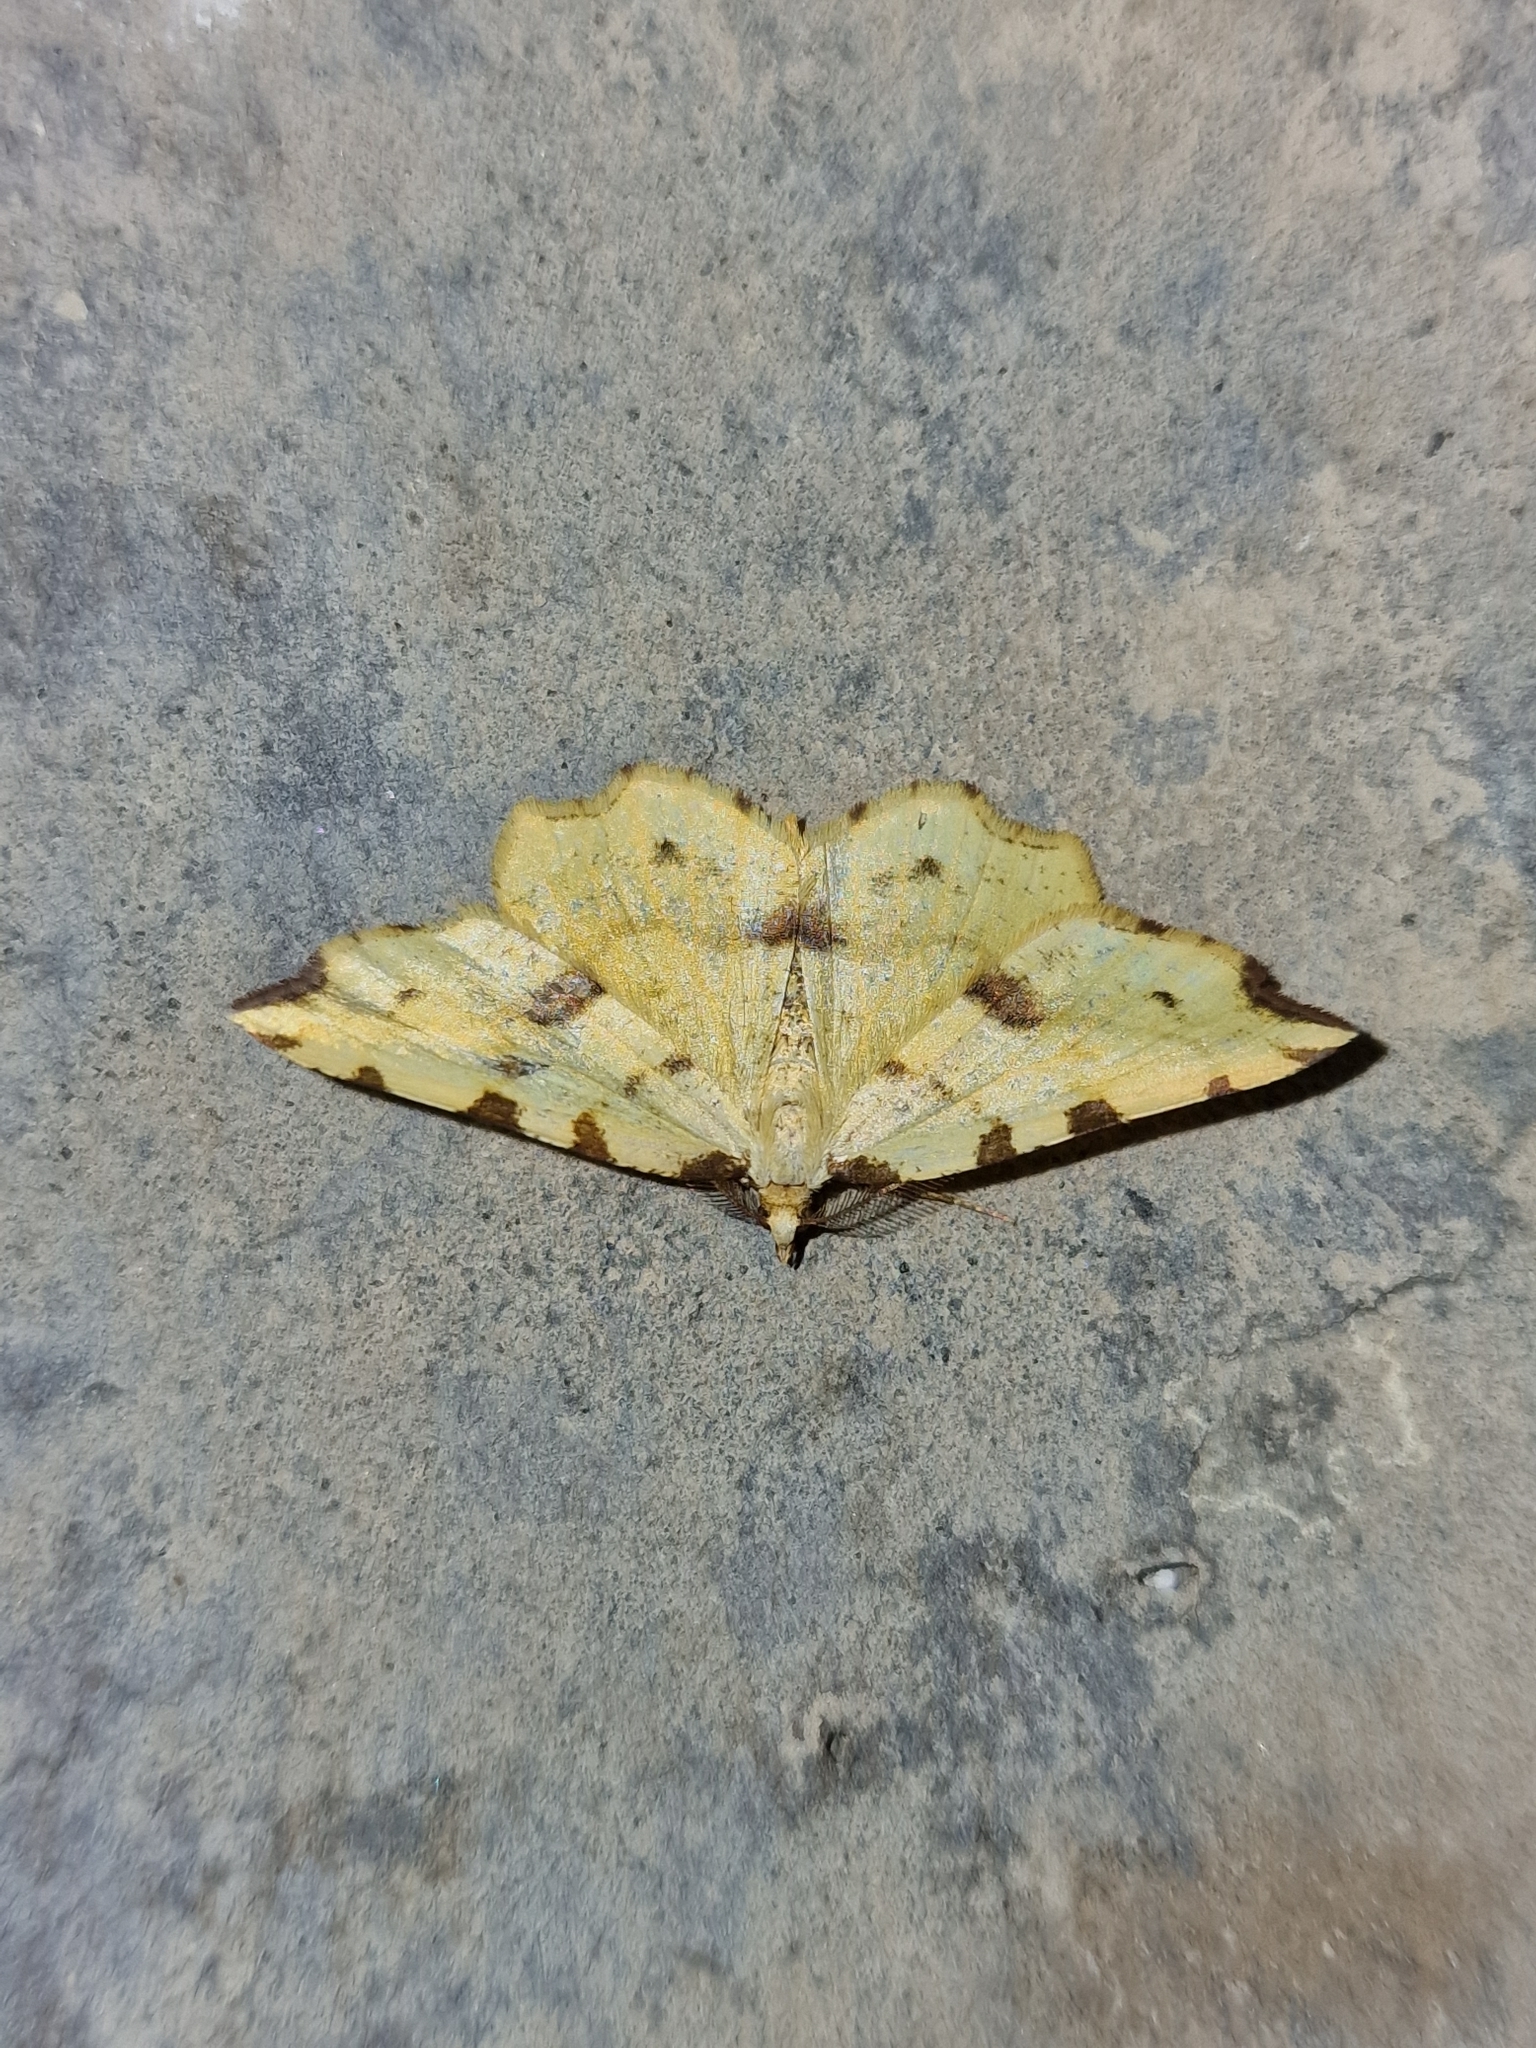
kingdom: Animalia
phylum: Arthropoda
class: Insecta
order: Lepidoptera
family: Geometridae
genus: Therapis
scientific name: Therapis flavicaria
